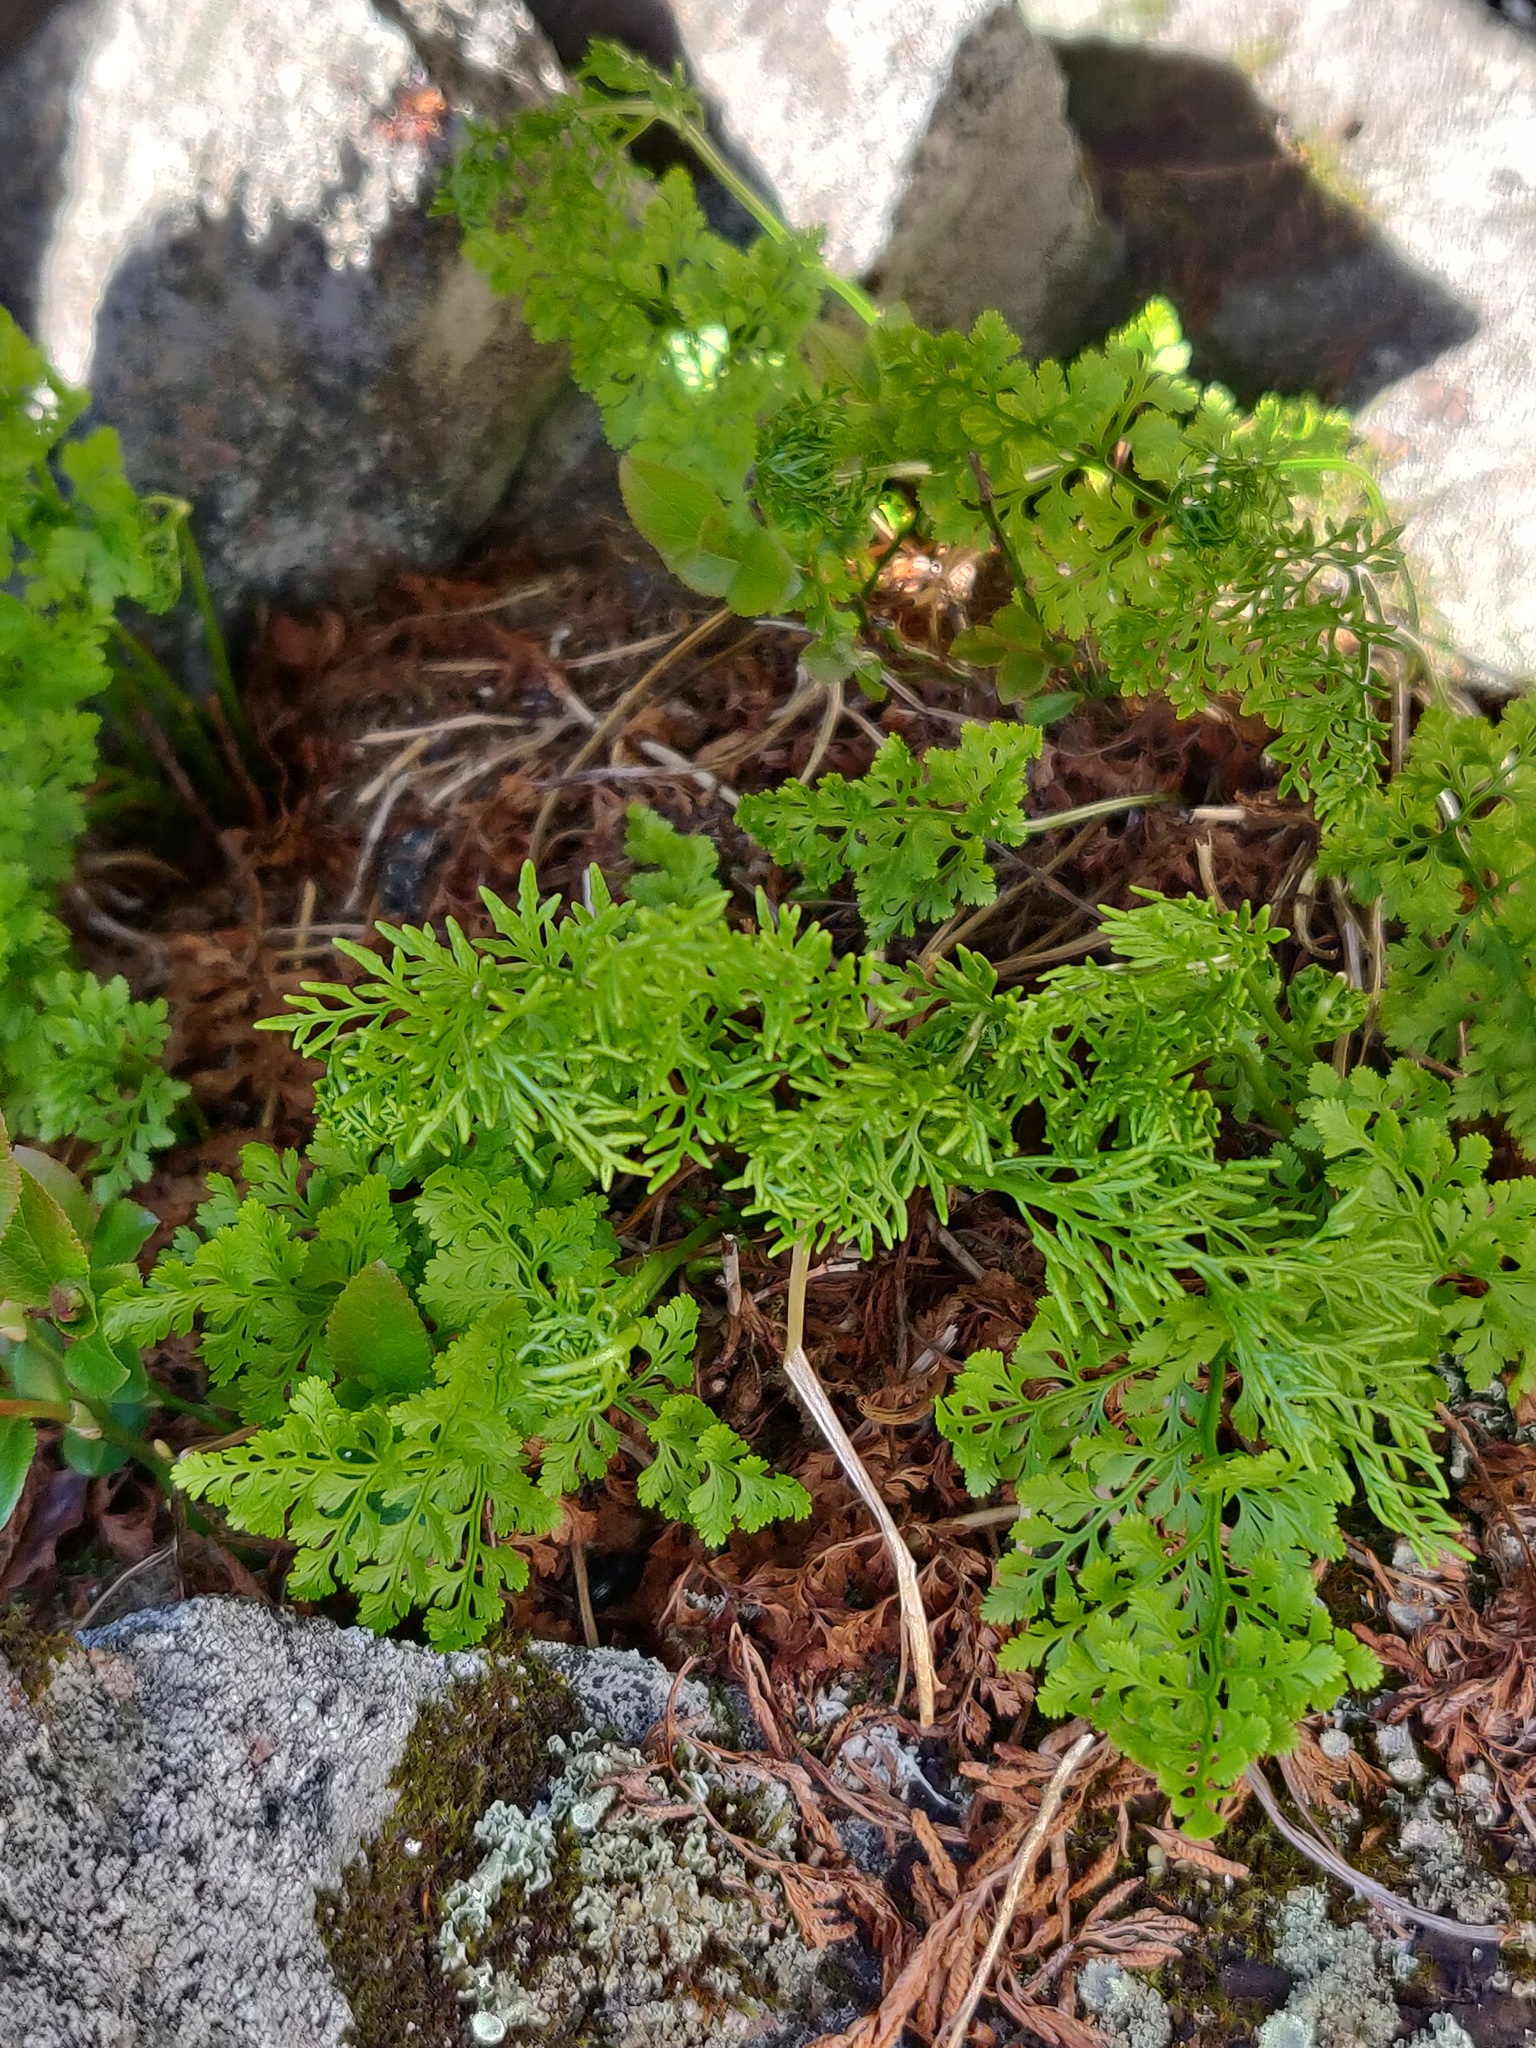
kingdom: Plantae
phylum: Tracheophyta
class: Polypodiopsida
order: Polypodiales
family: Pteridaceae
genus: Cryptogramma
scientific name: Cryptogramma crispa
